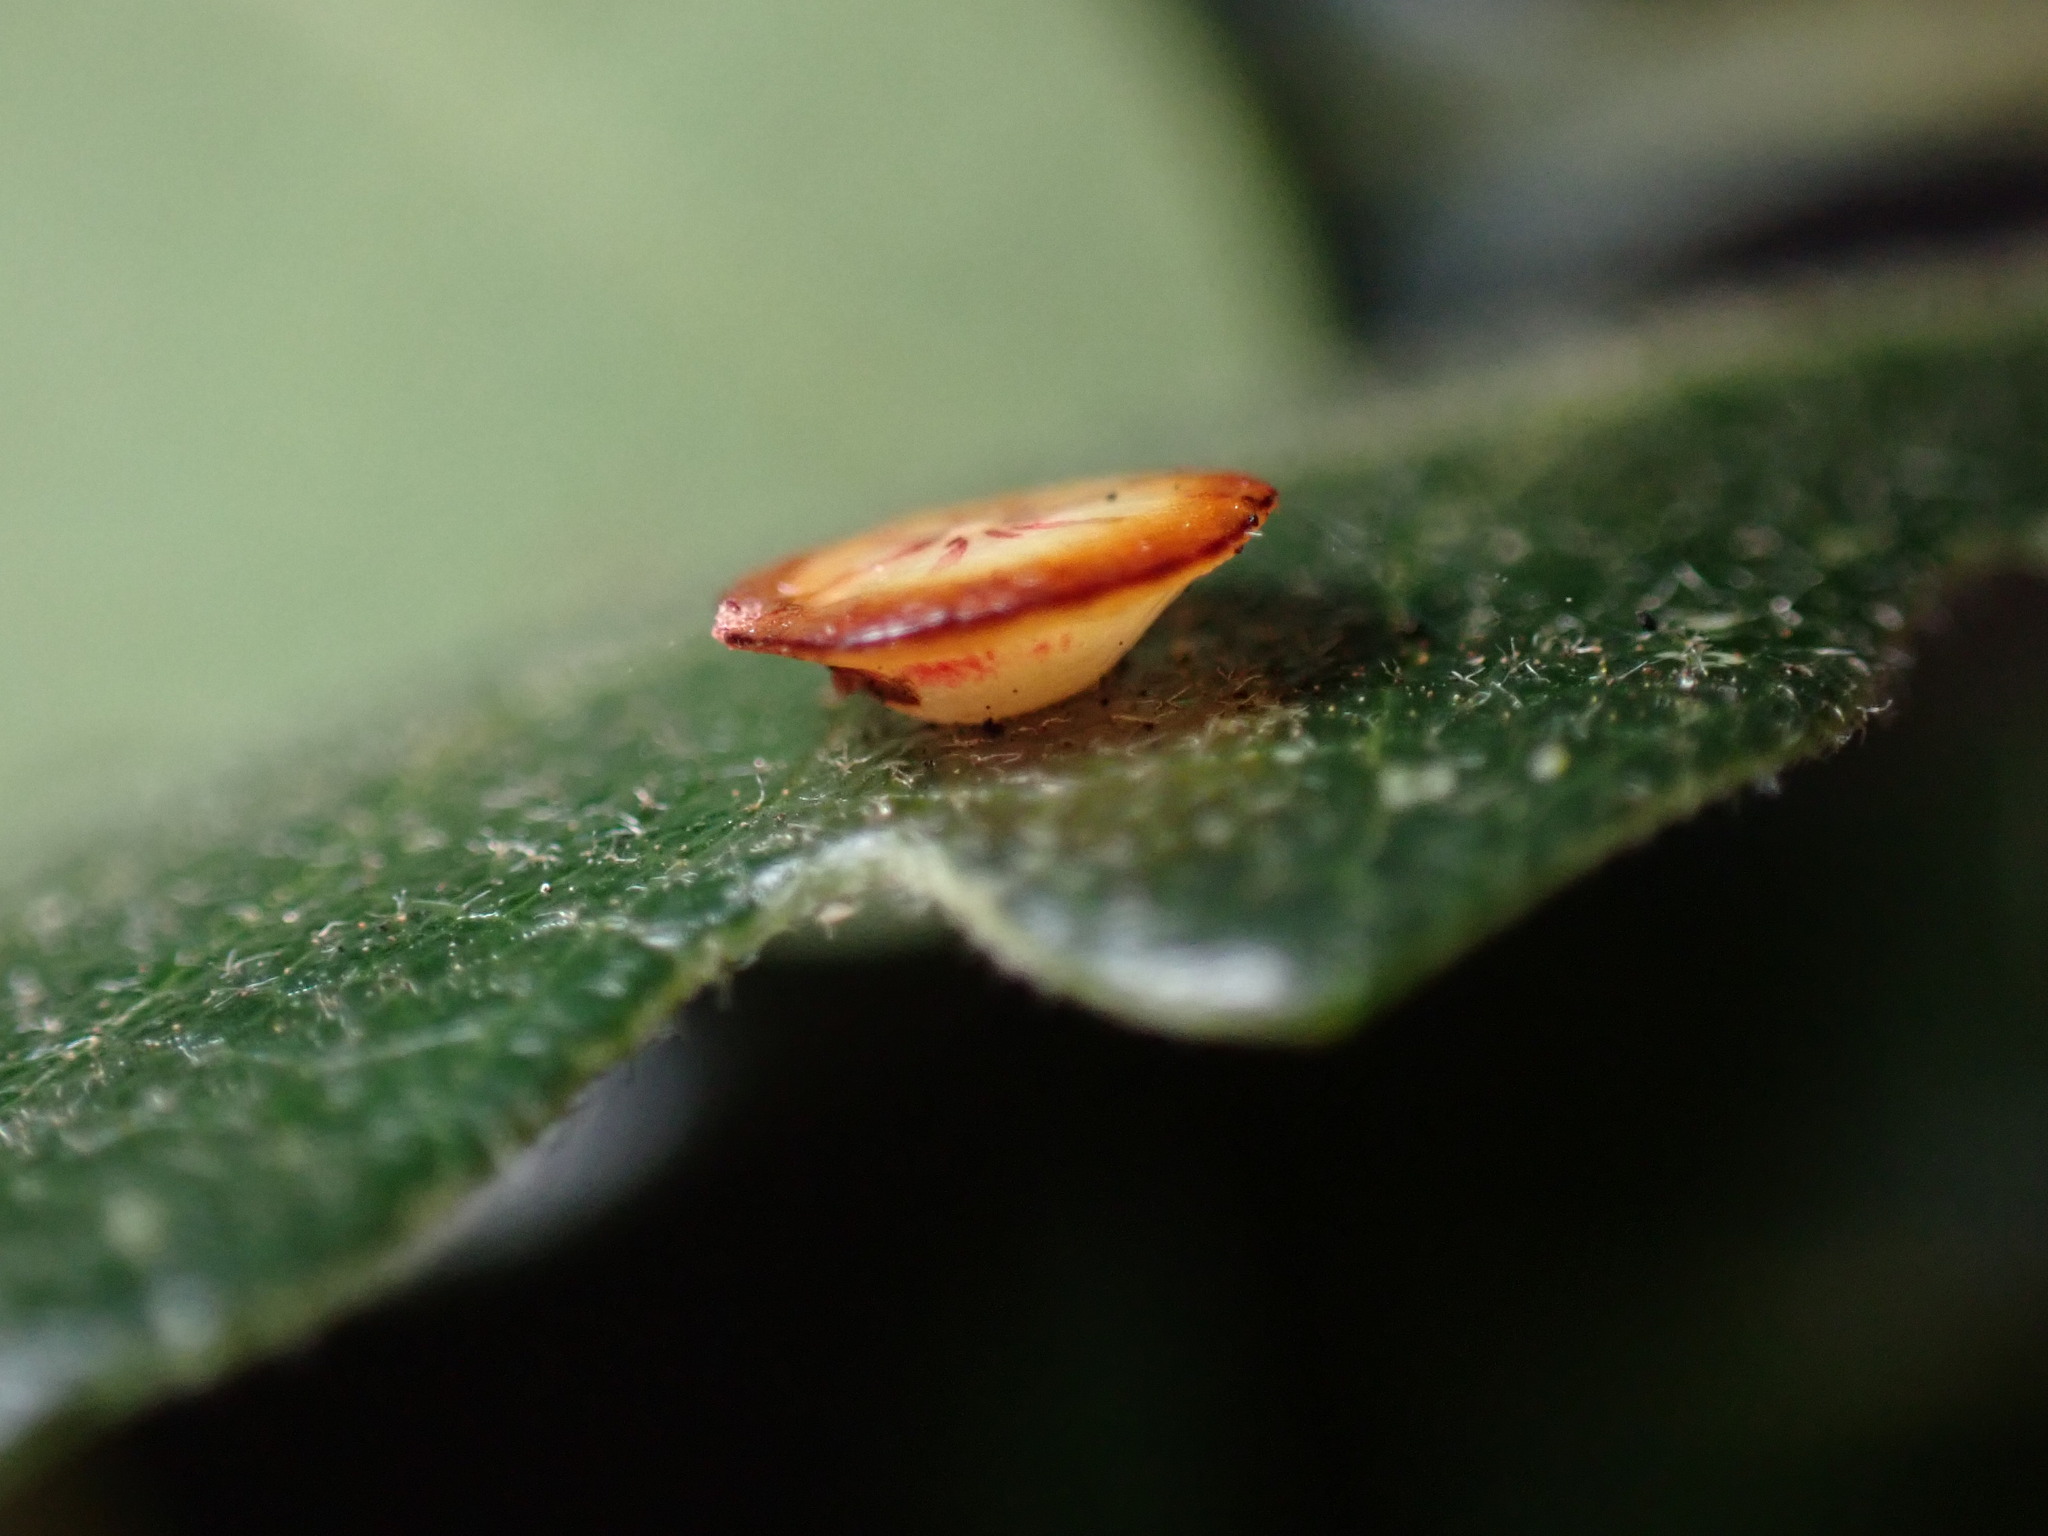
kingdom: Animalia
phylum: Arthropoda
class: Insecta
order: Hymenoptera
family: Cynipidae
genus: Andricus
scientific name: Andricus
